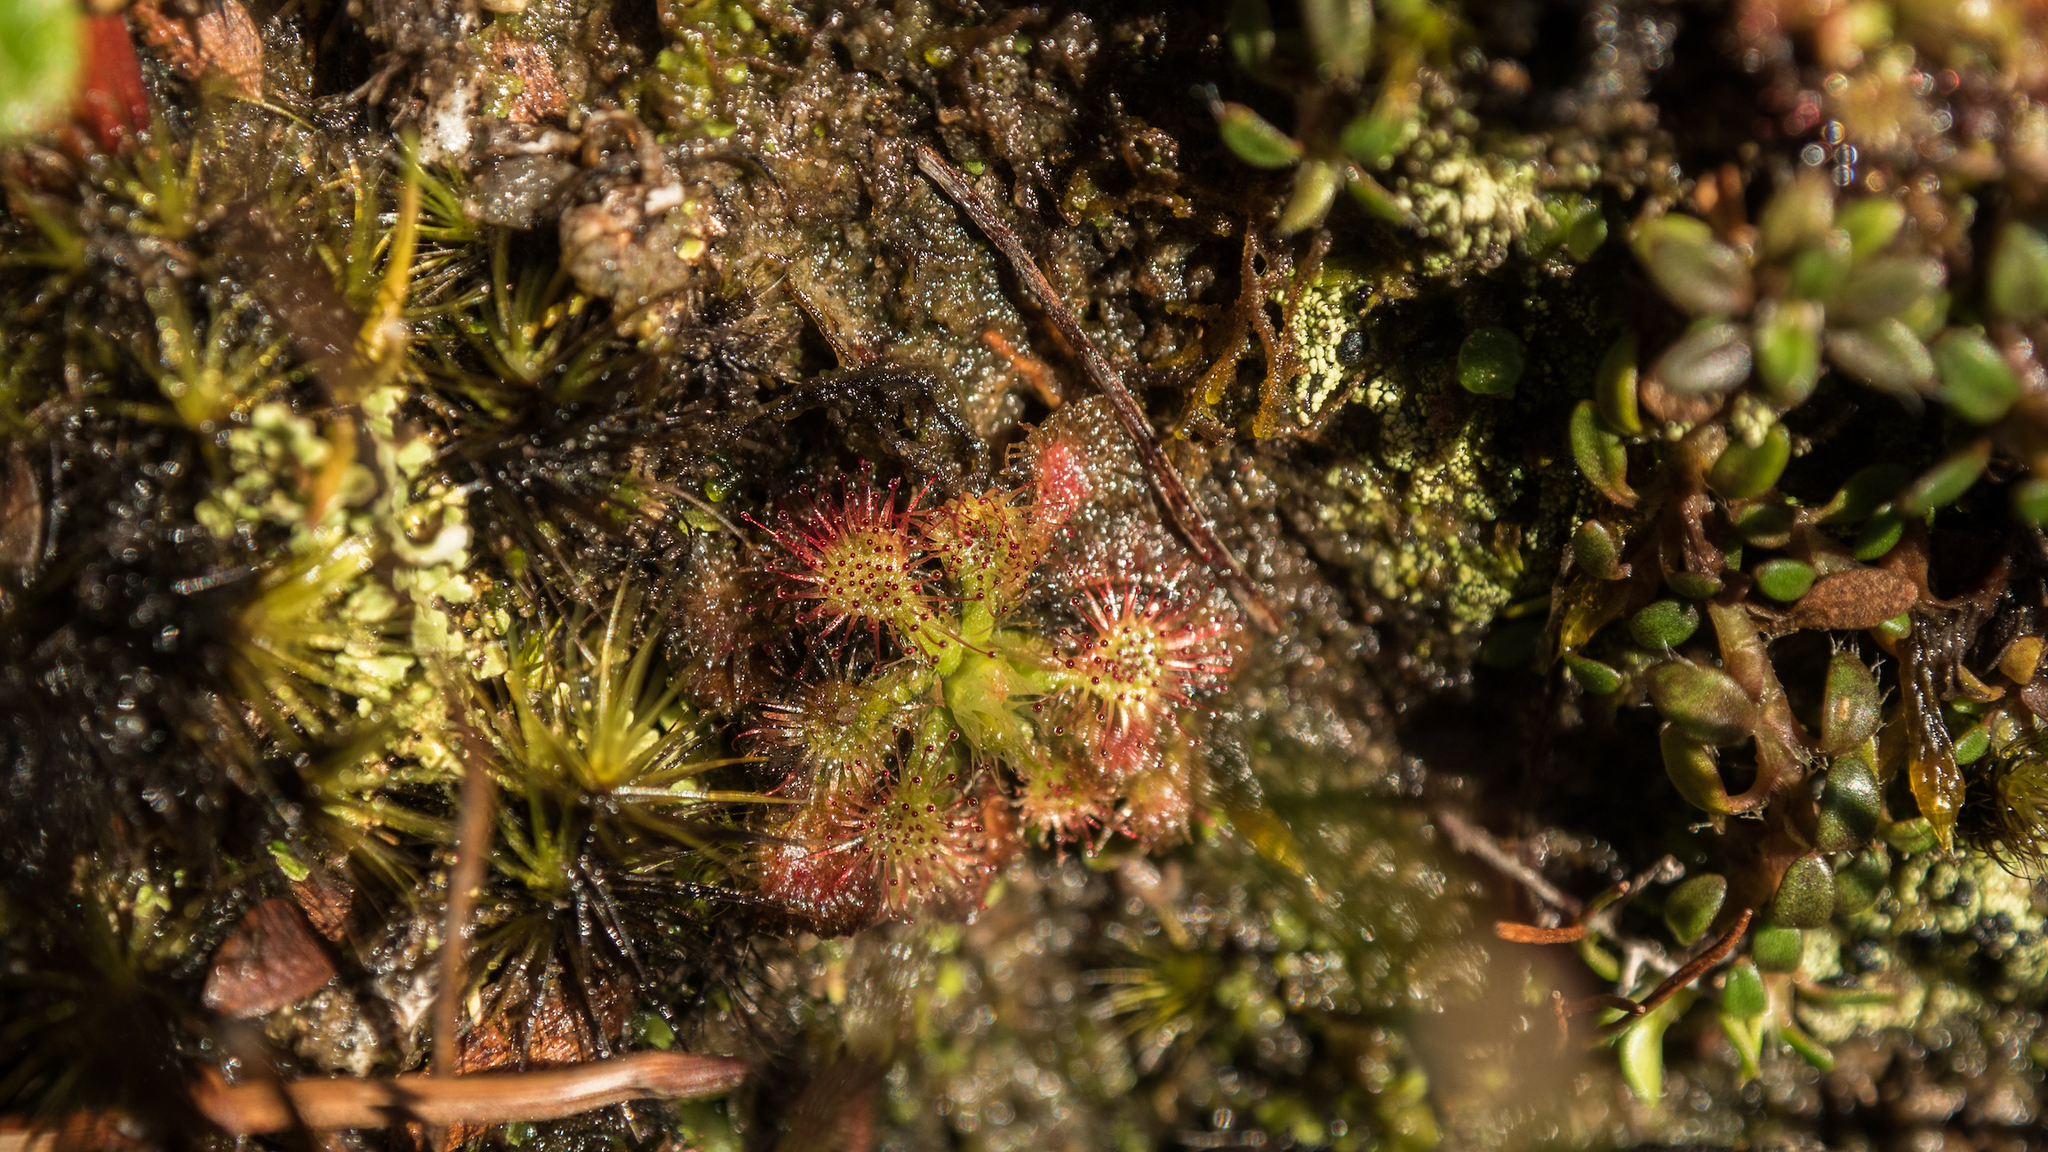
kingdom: Plantae
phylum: Tracheophyta
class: Magnoliopsida
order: Caryophyllales
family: Droseraceae
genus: Drosera
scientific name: Drosera spatulata
